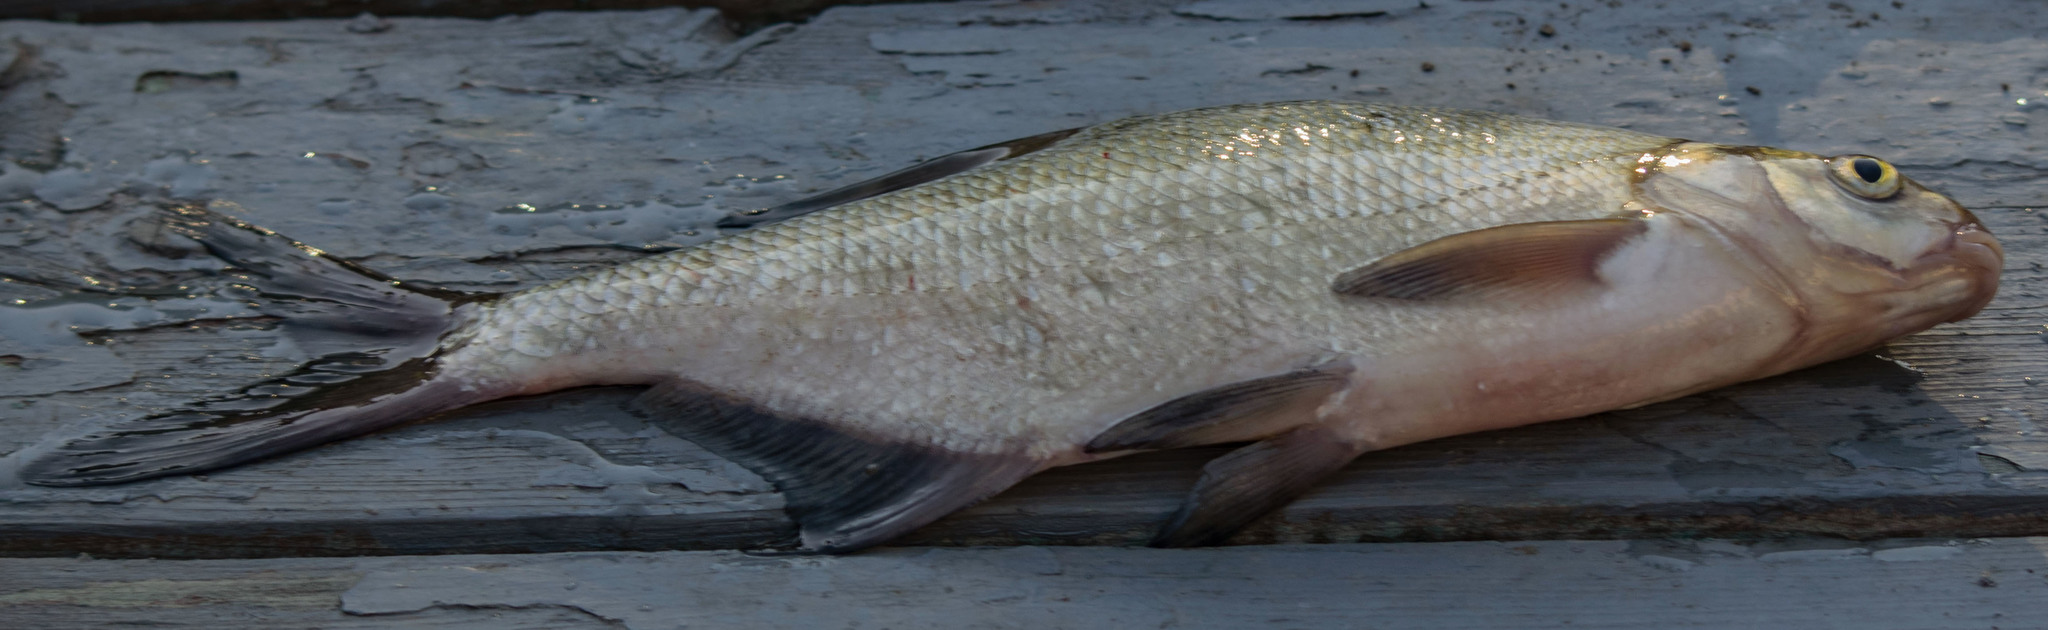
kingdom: Animalia
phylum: Chordata
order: Cypriniformes
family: Cyprinidae
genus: Abramis
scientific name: Abramis brama
